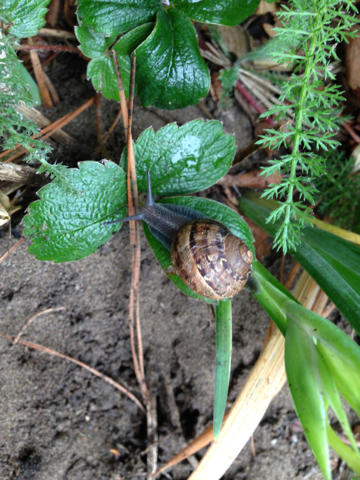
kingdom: Animalia
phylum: Mollusca
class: Gastropoda
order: Stylommatophora
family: Helicidae
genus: Cornu
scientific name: Cornu aspersum
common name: Brown garden snail
